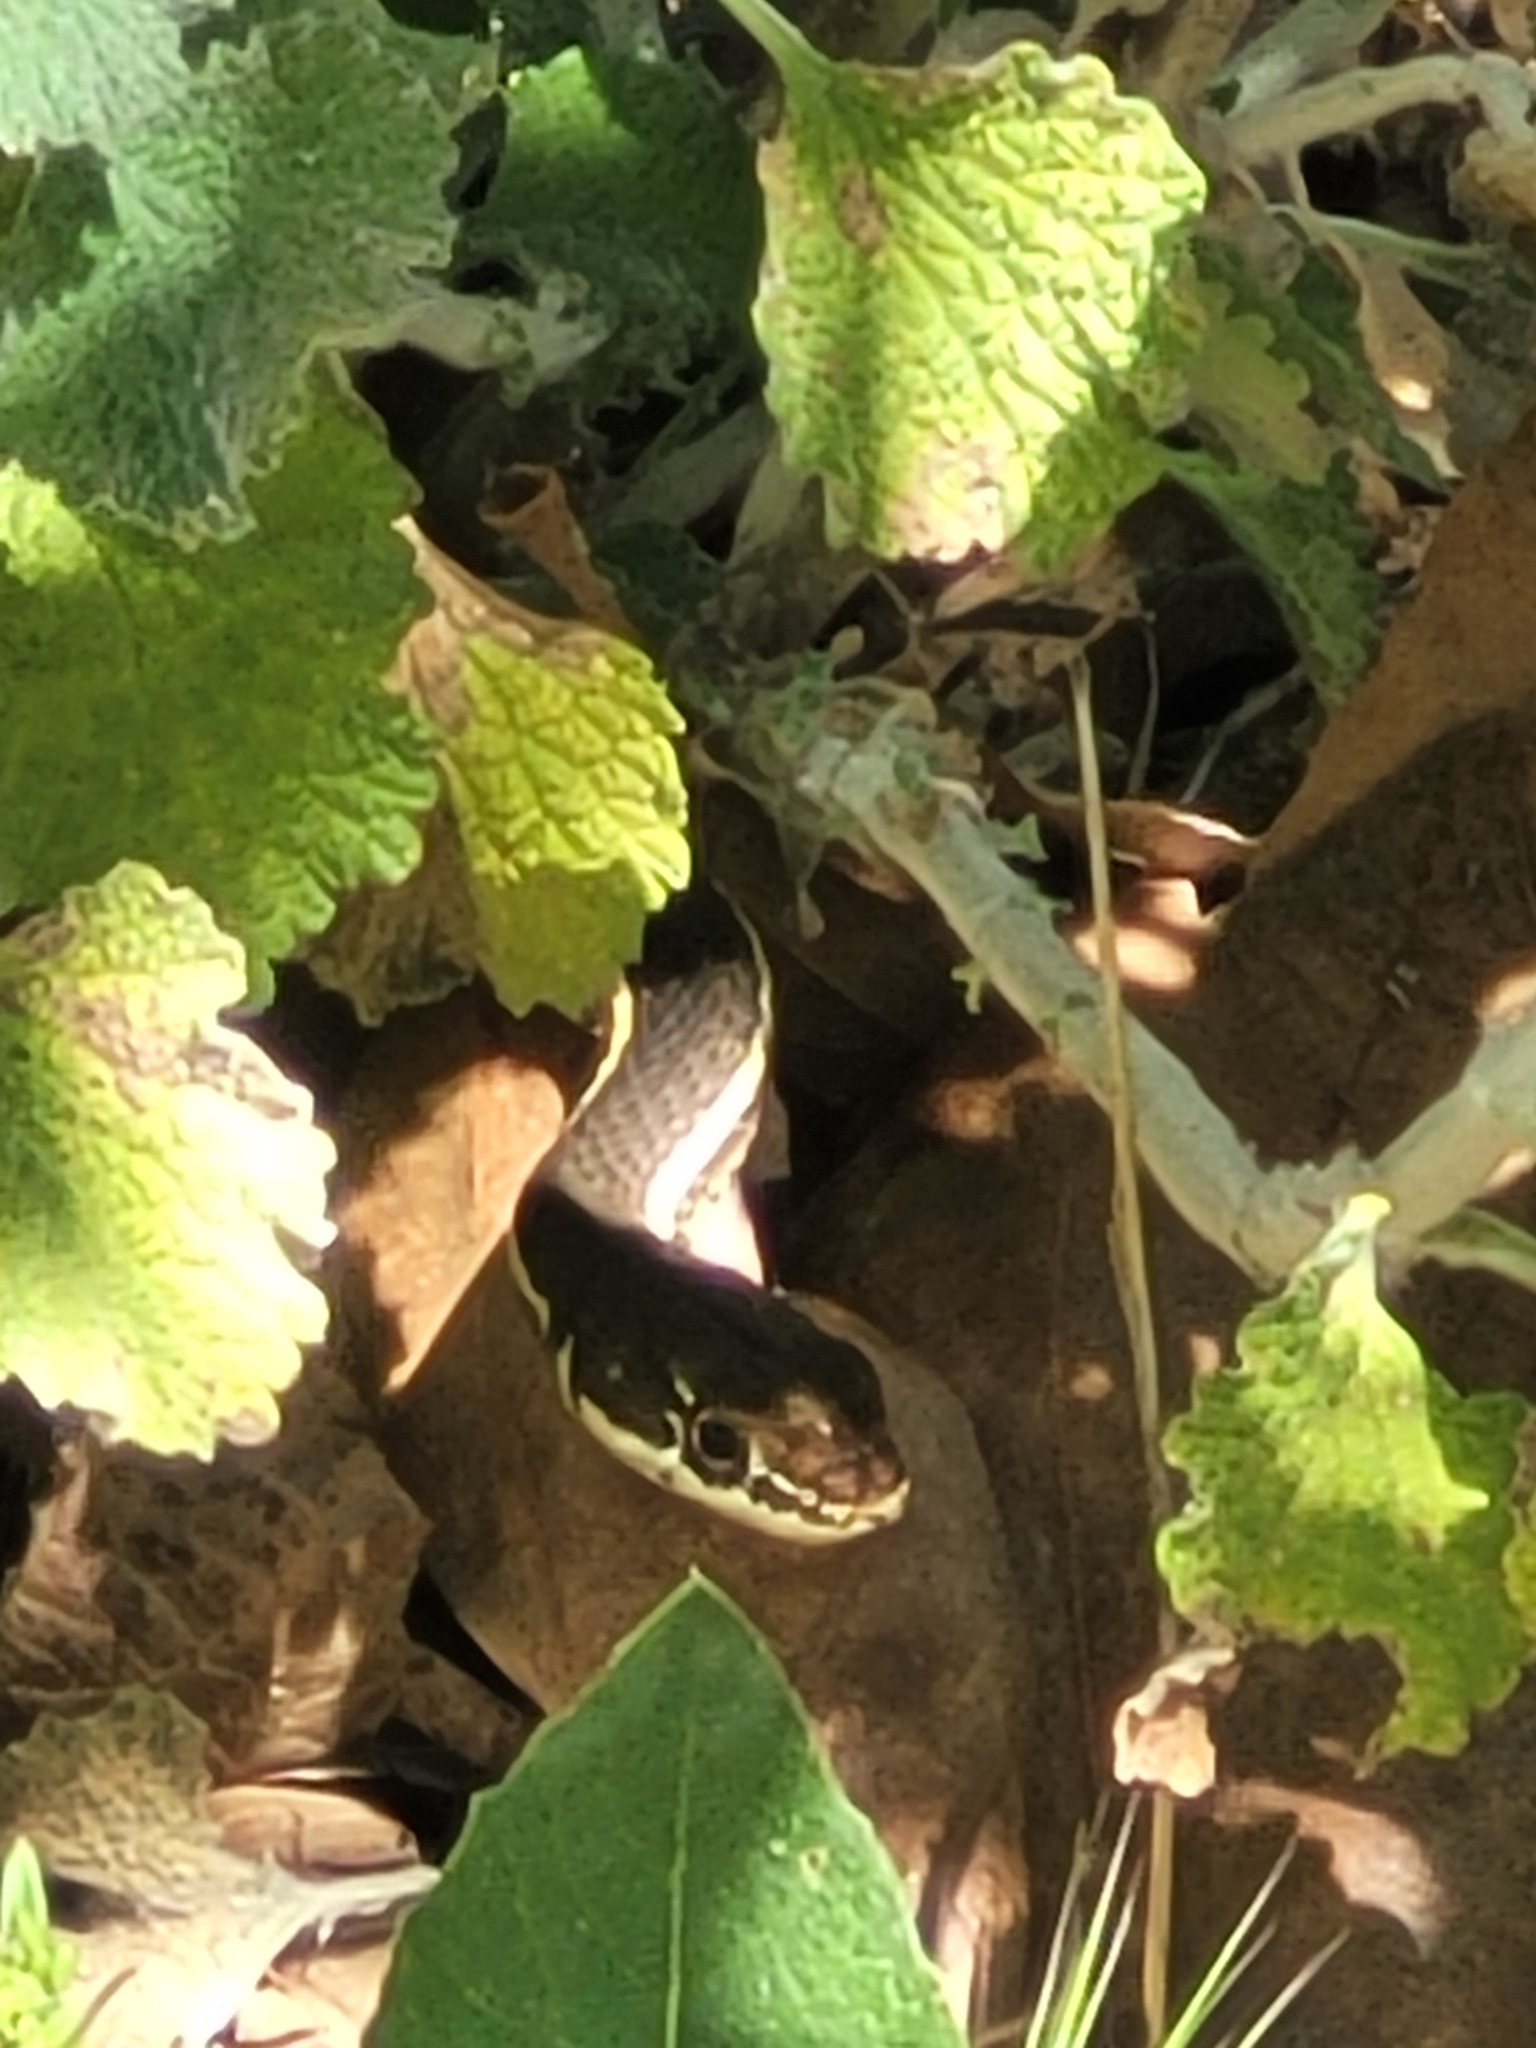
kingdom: Animalia
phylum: Chordata
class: Squamata
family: Colubridae
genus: Masticophis
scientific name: Masticophis lateralis
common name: Striped racer
